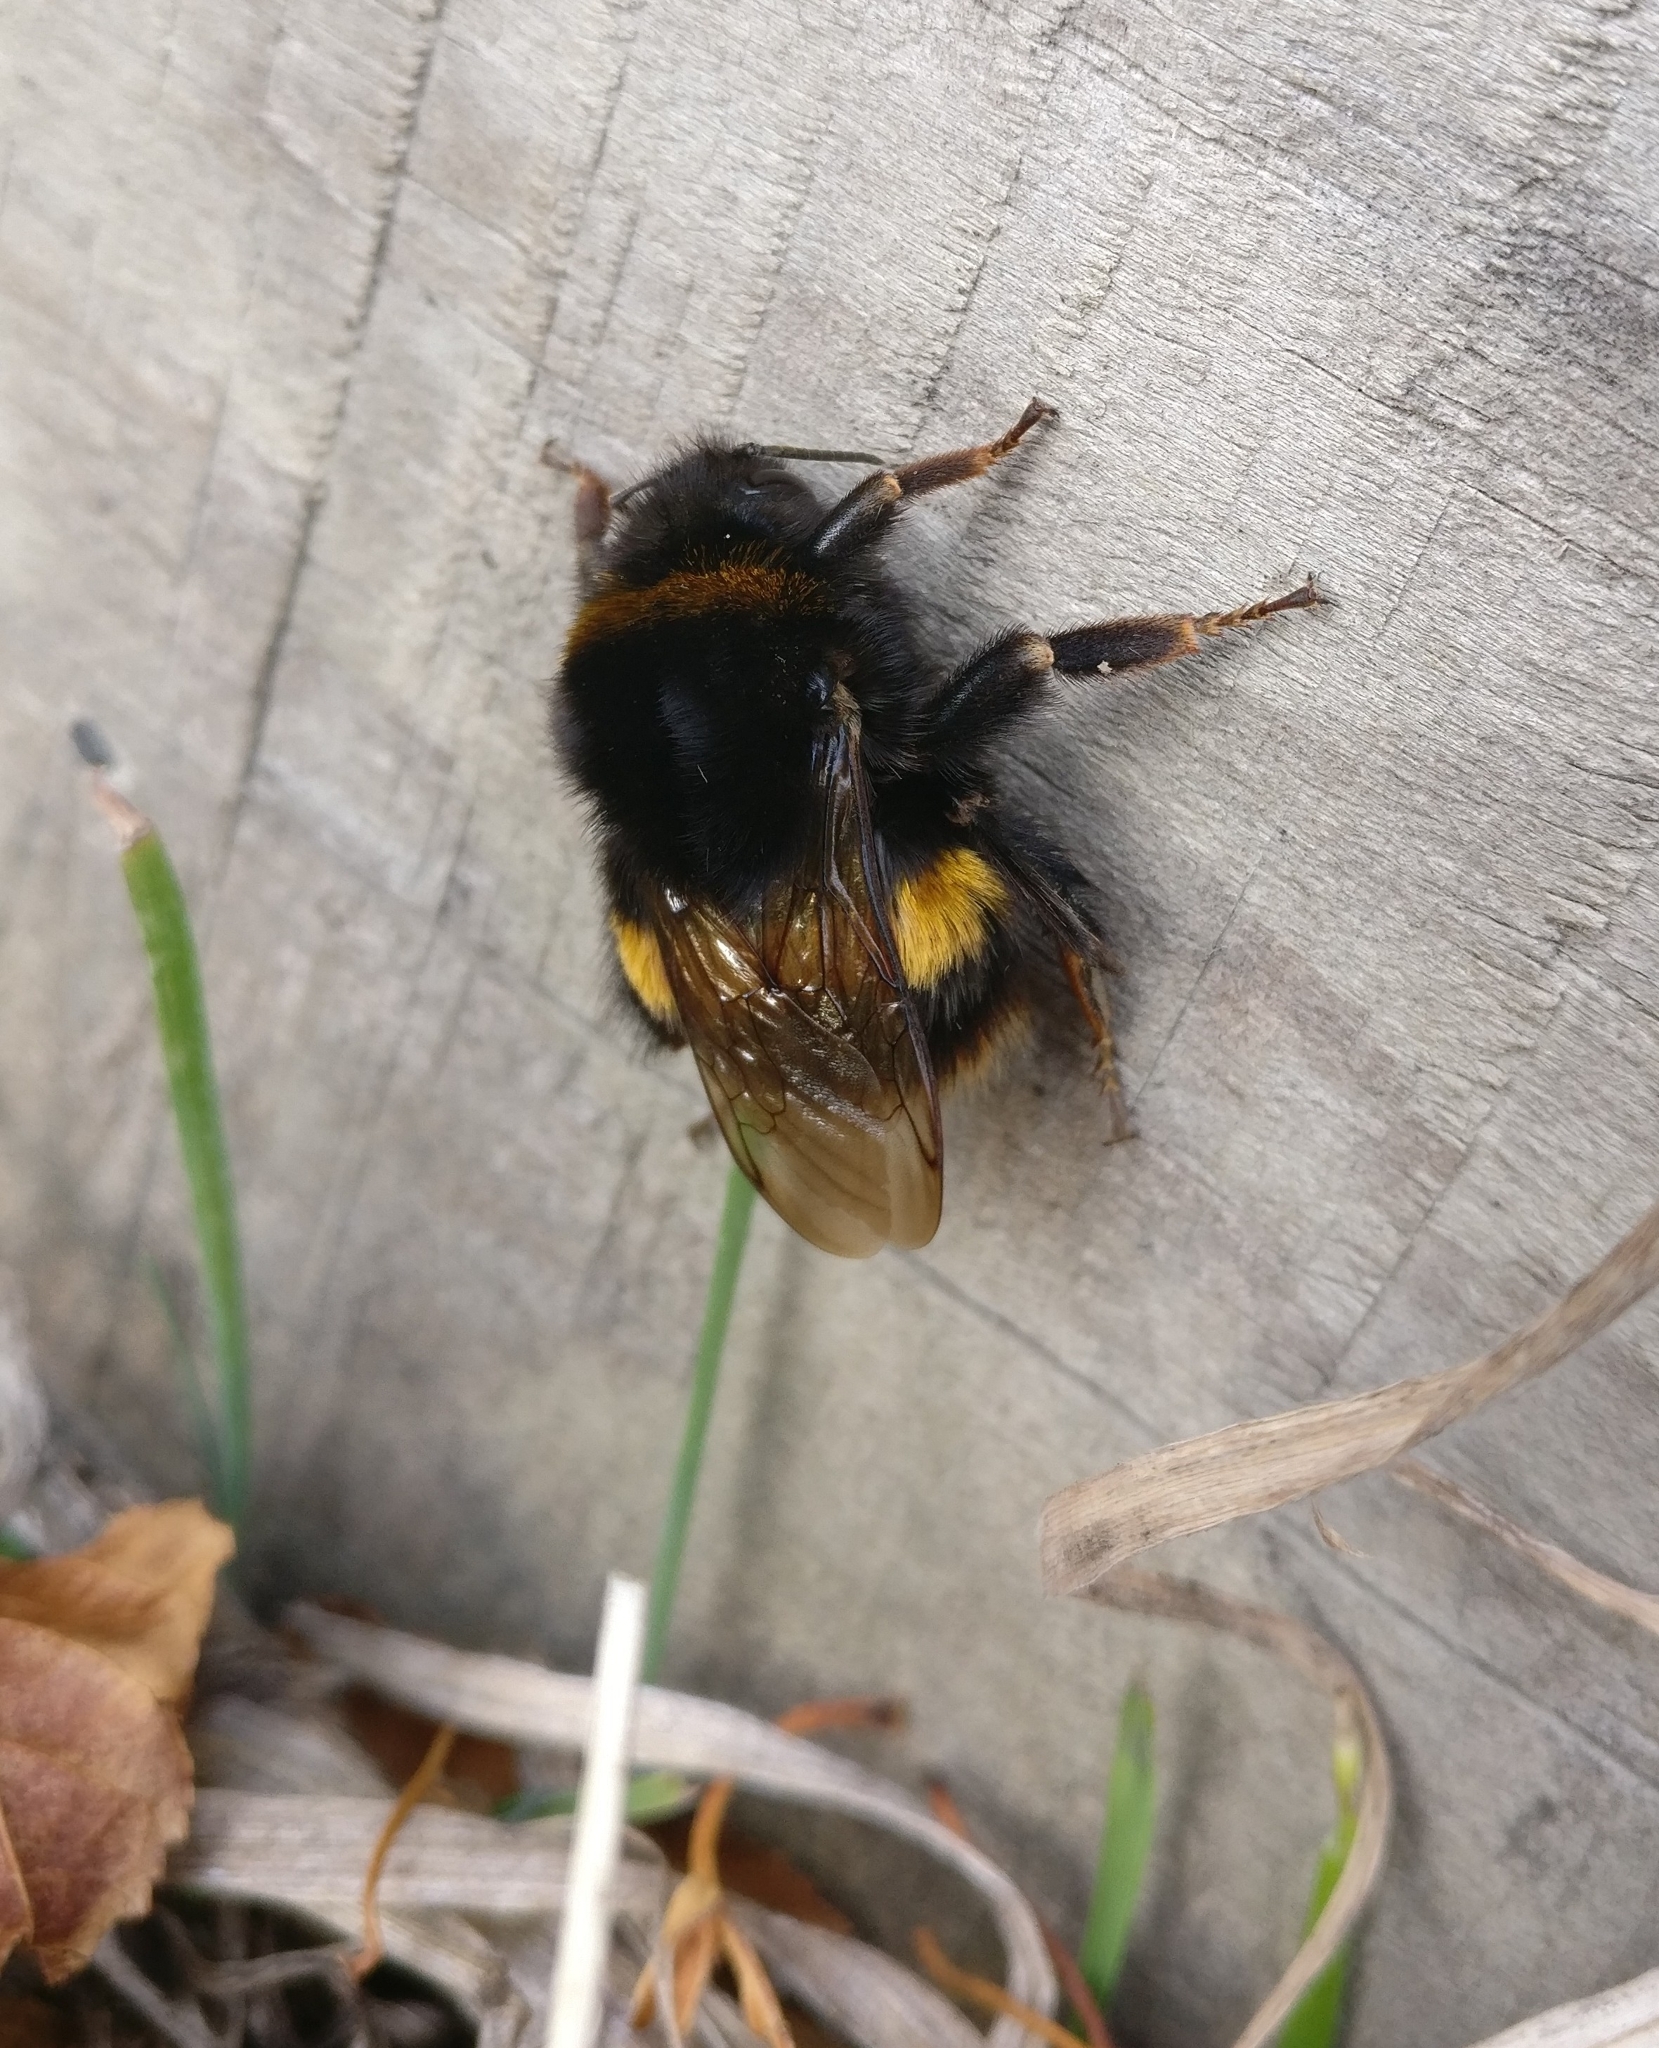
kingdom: Animalia
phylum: Arthropoda
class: Insecta
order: Hymenoptera
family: Apidae
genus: Bombus
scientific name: Bombus terrestris
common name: Buff-tailed bumblebee
